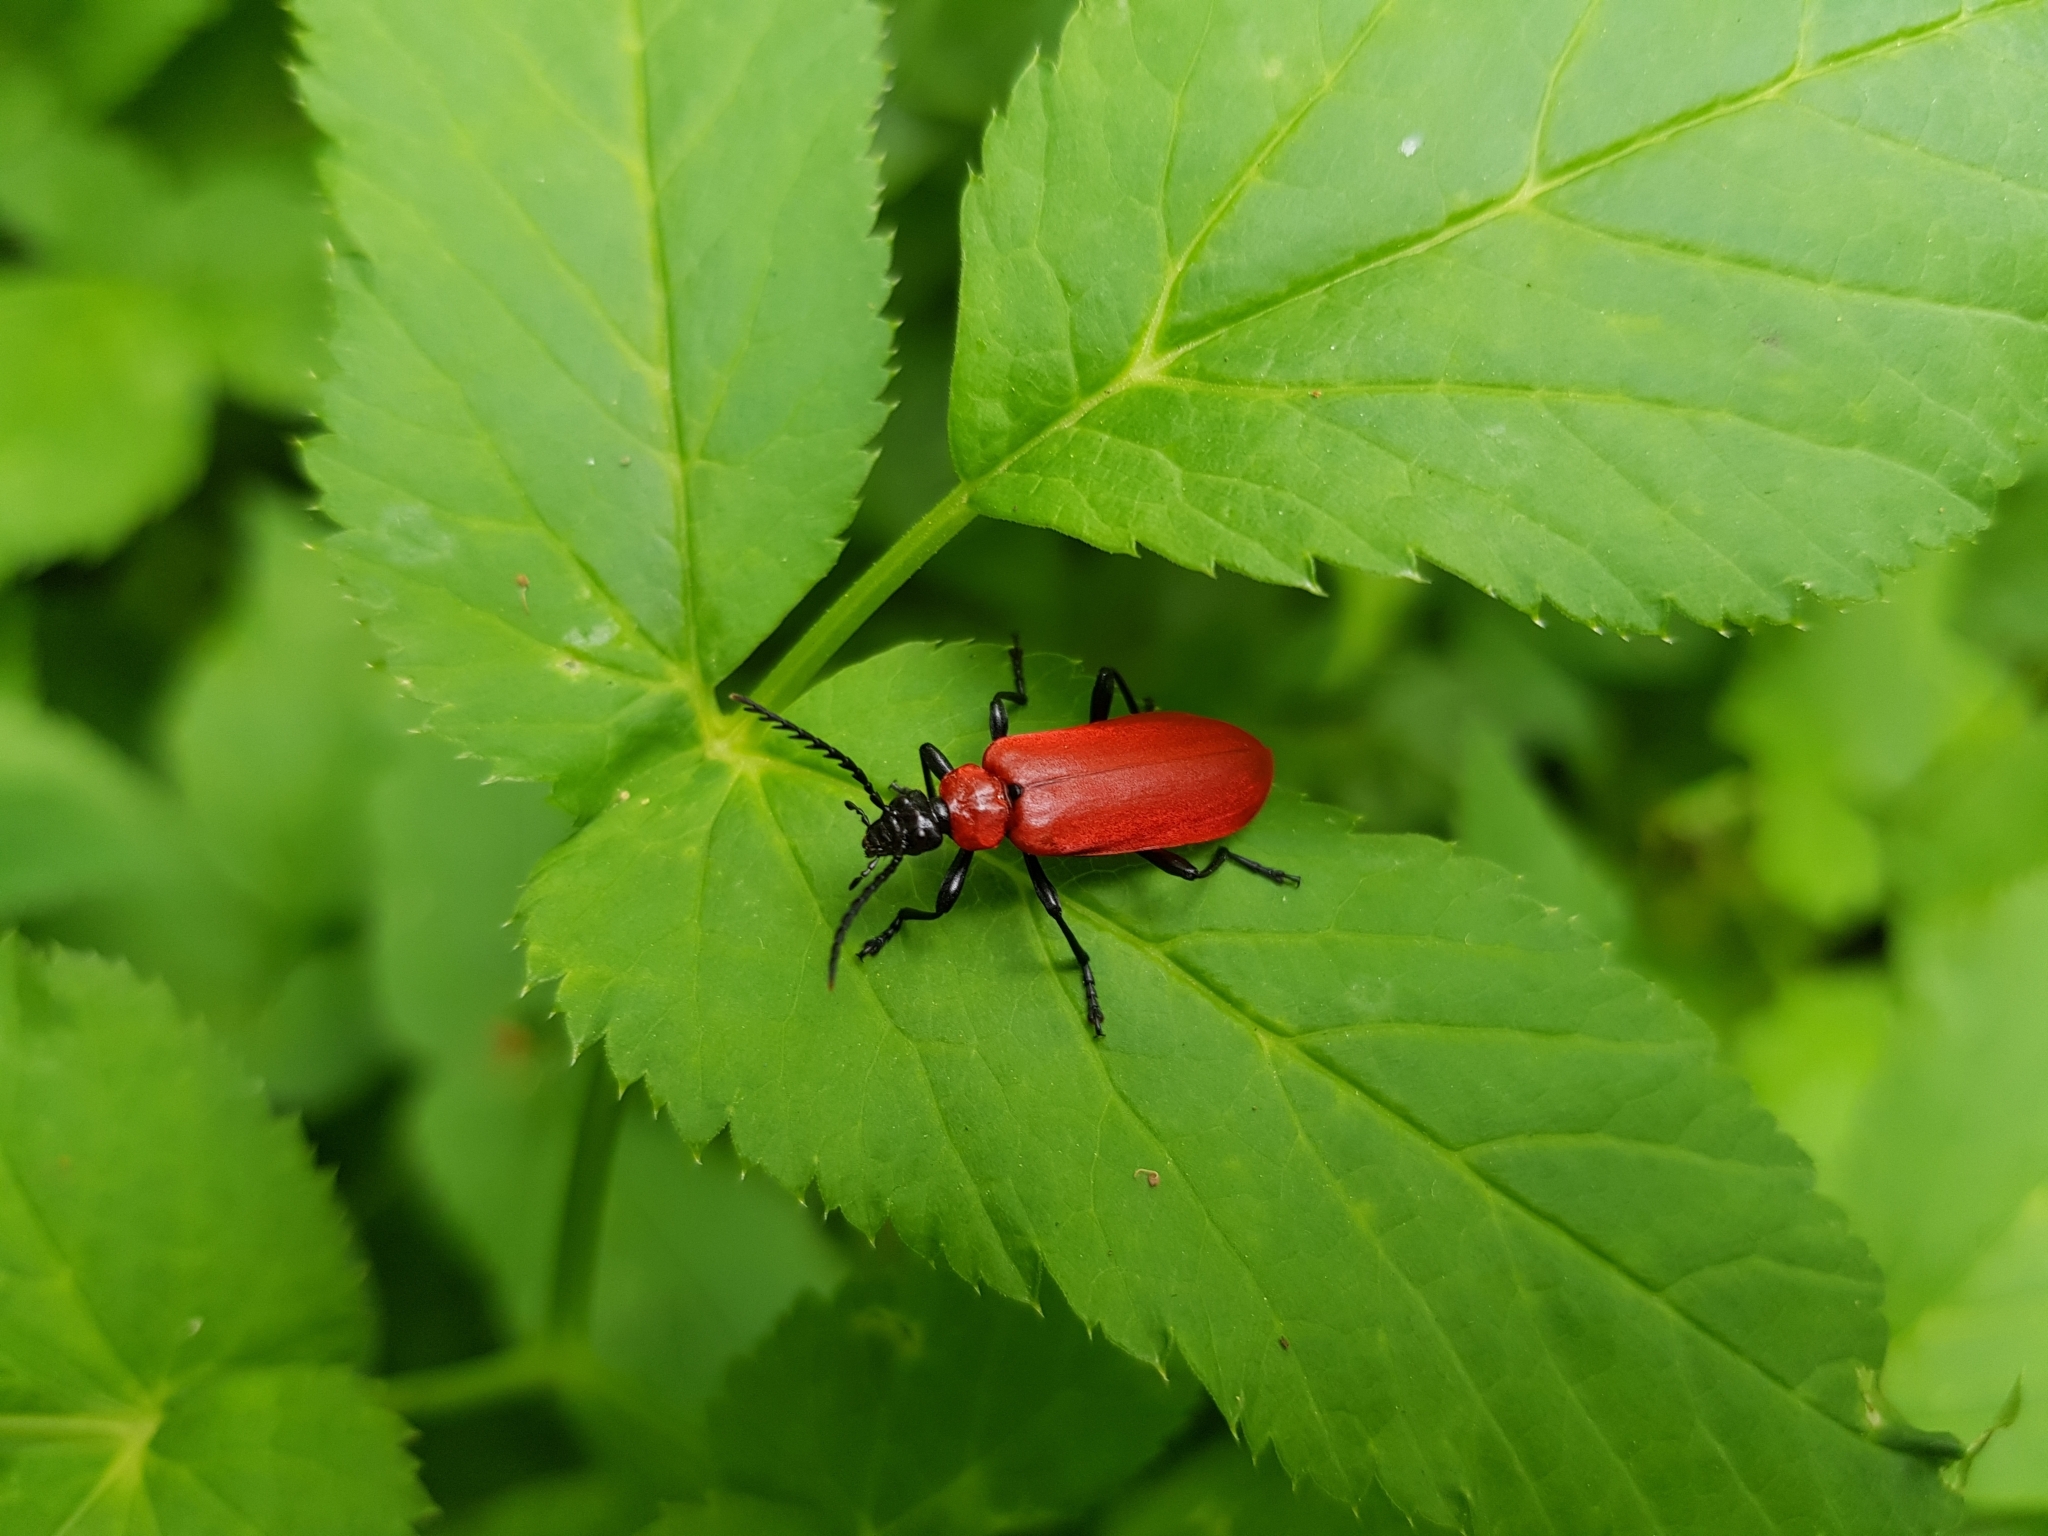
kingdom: Animalia
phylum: Arthropoda
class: Insecta
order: Coleoptera
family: Pyrochroidae
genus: Pyrochroa
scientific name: Pyrochroa coccinea
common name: Black-headed cardinal beetle
